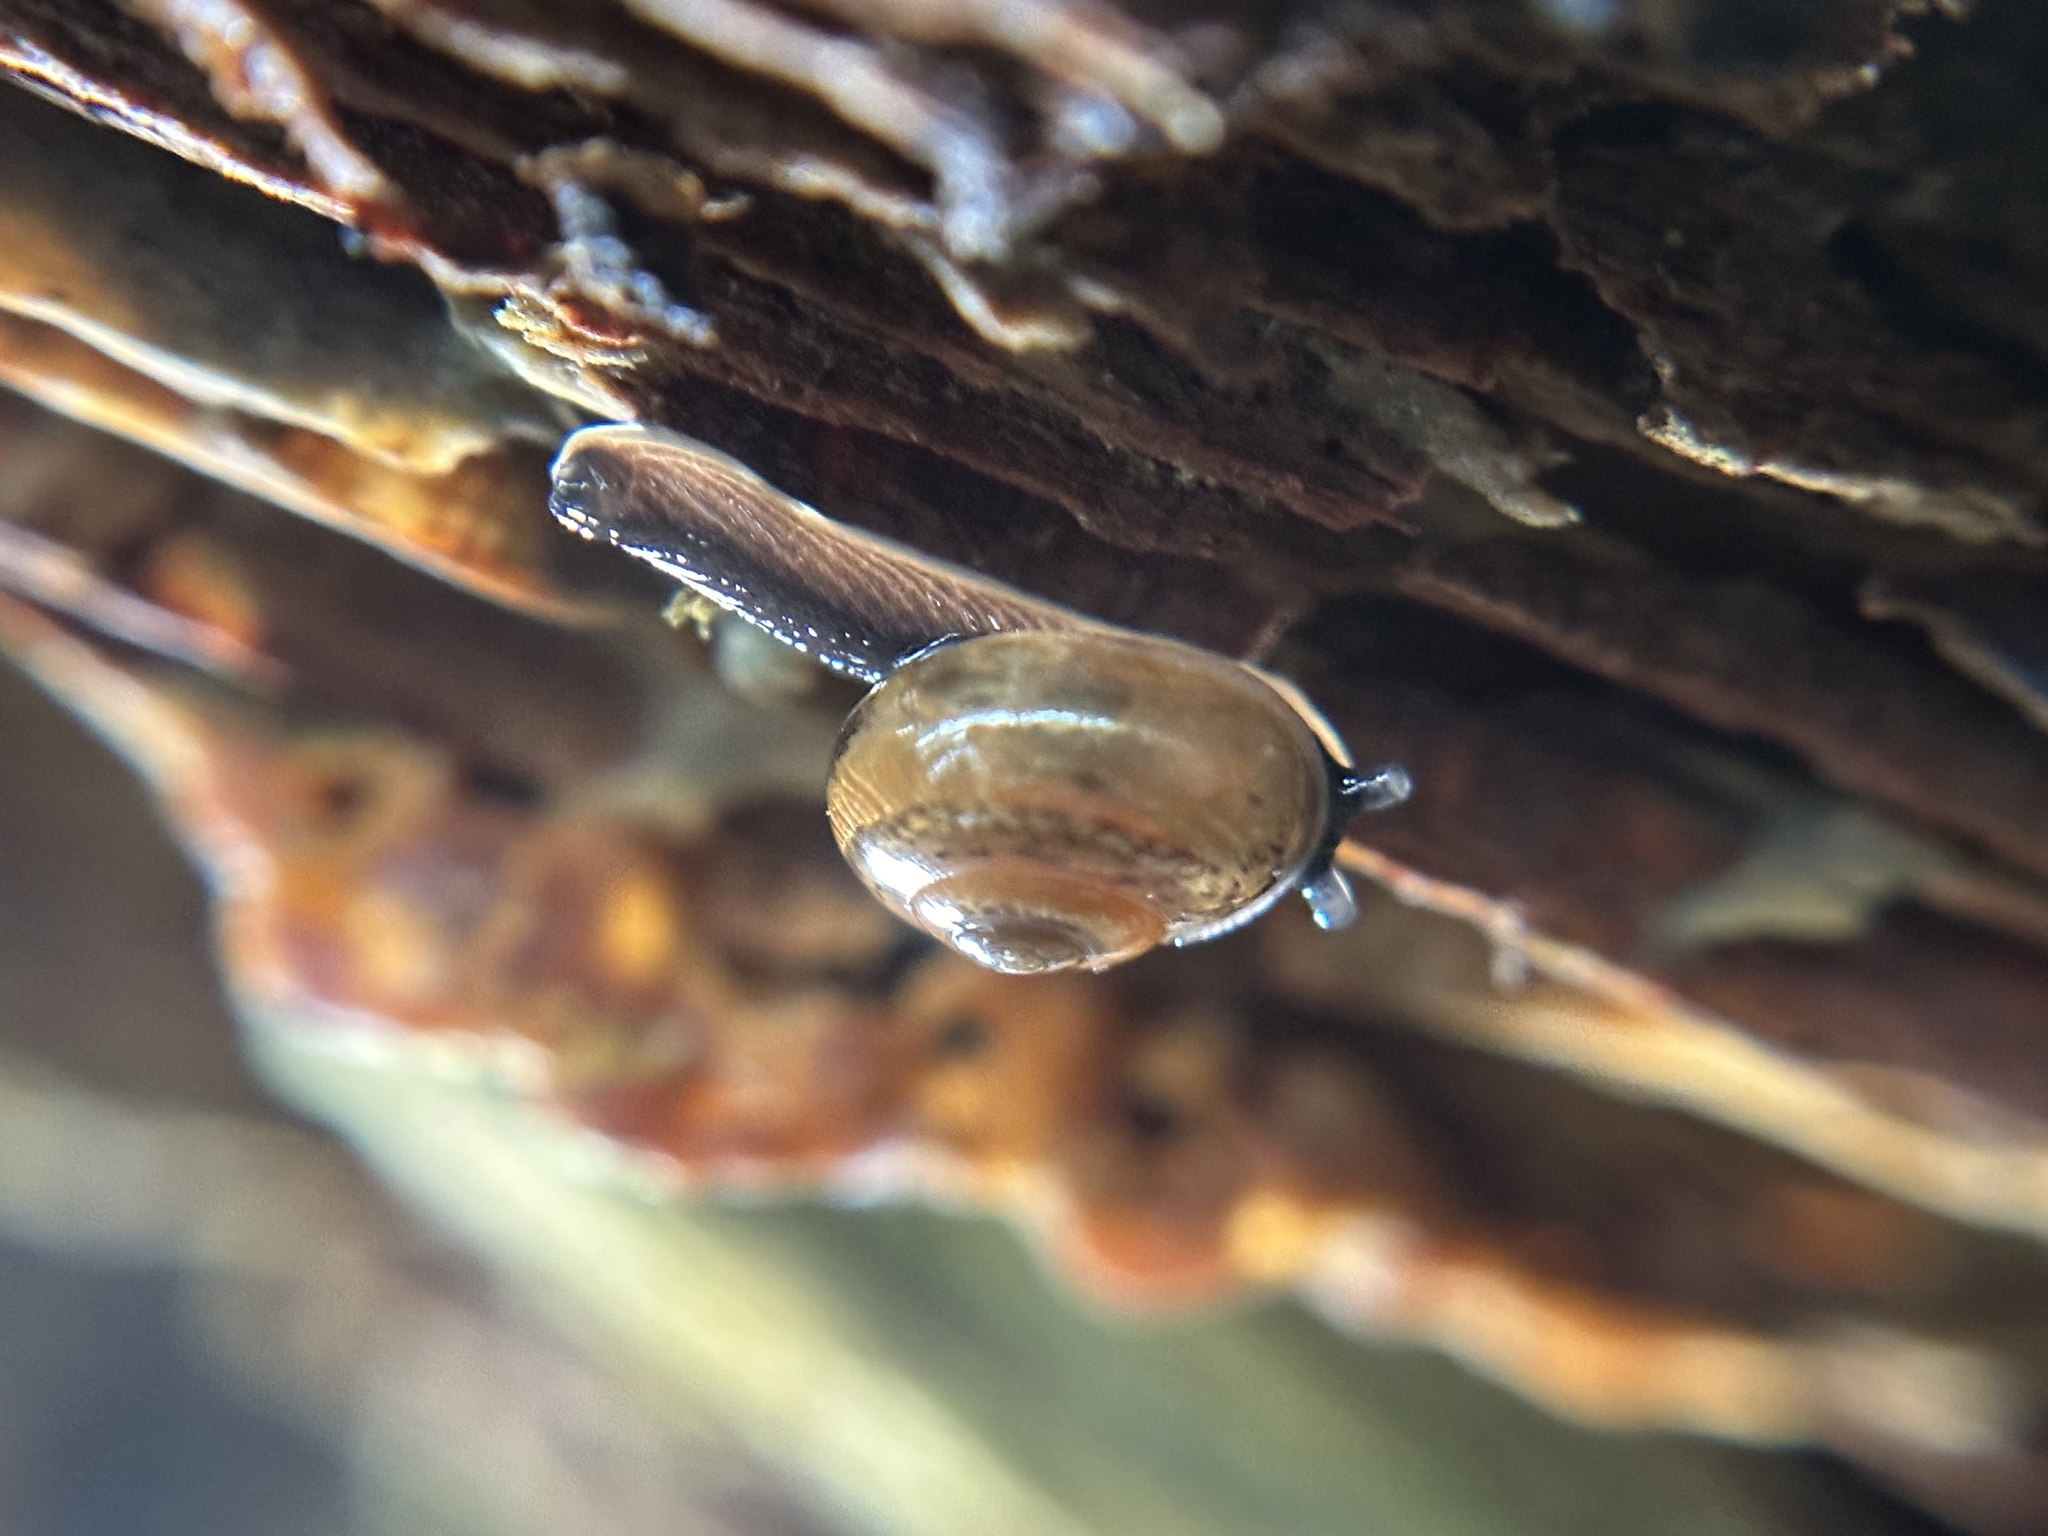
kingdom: Animalia
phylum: Mollusca
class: Gastropoda
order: Stylommatophora
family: Helicarionidae
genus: Ovachlamys
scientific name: Ovachlamys fulgens
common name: Jumping snail
